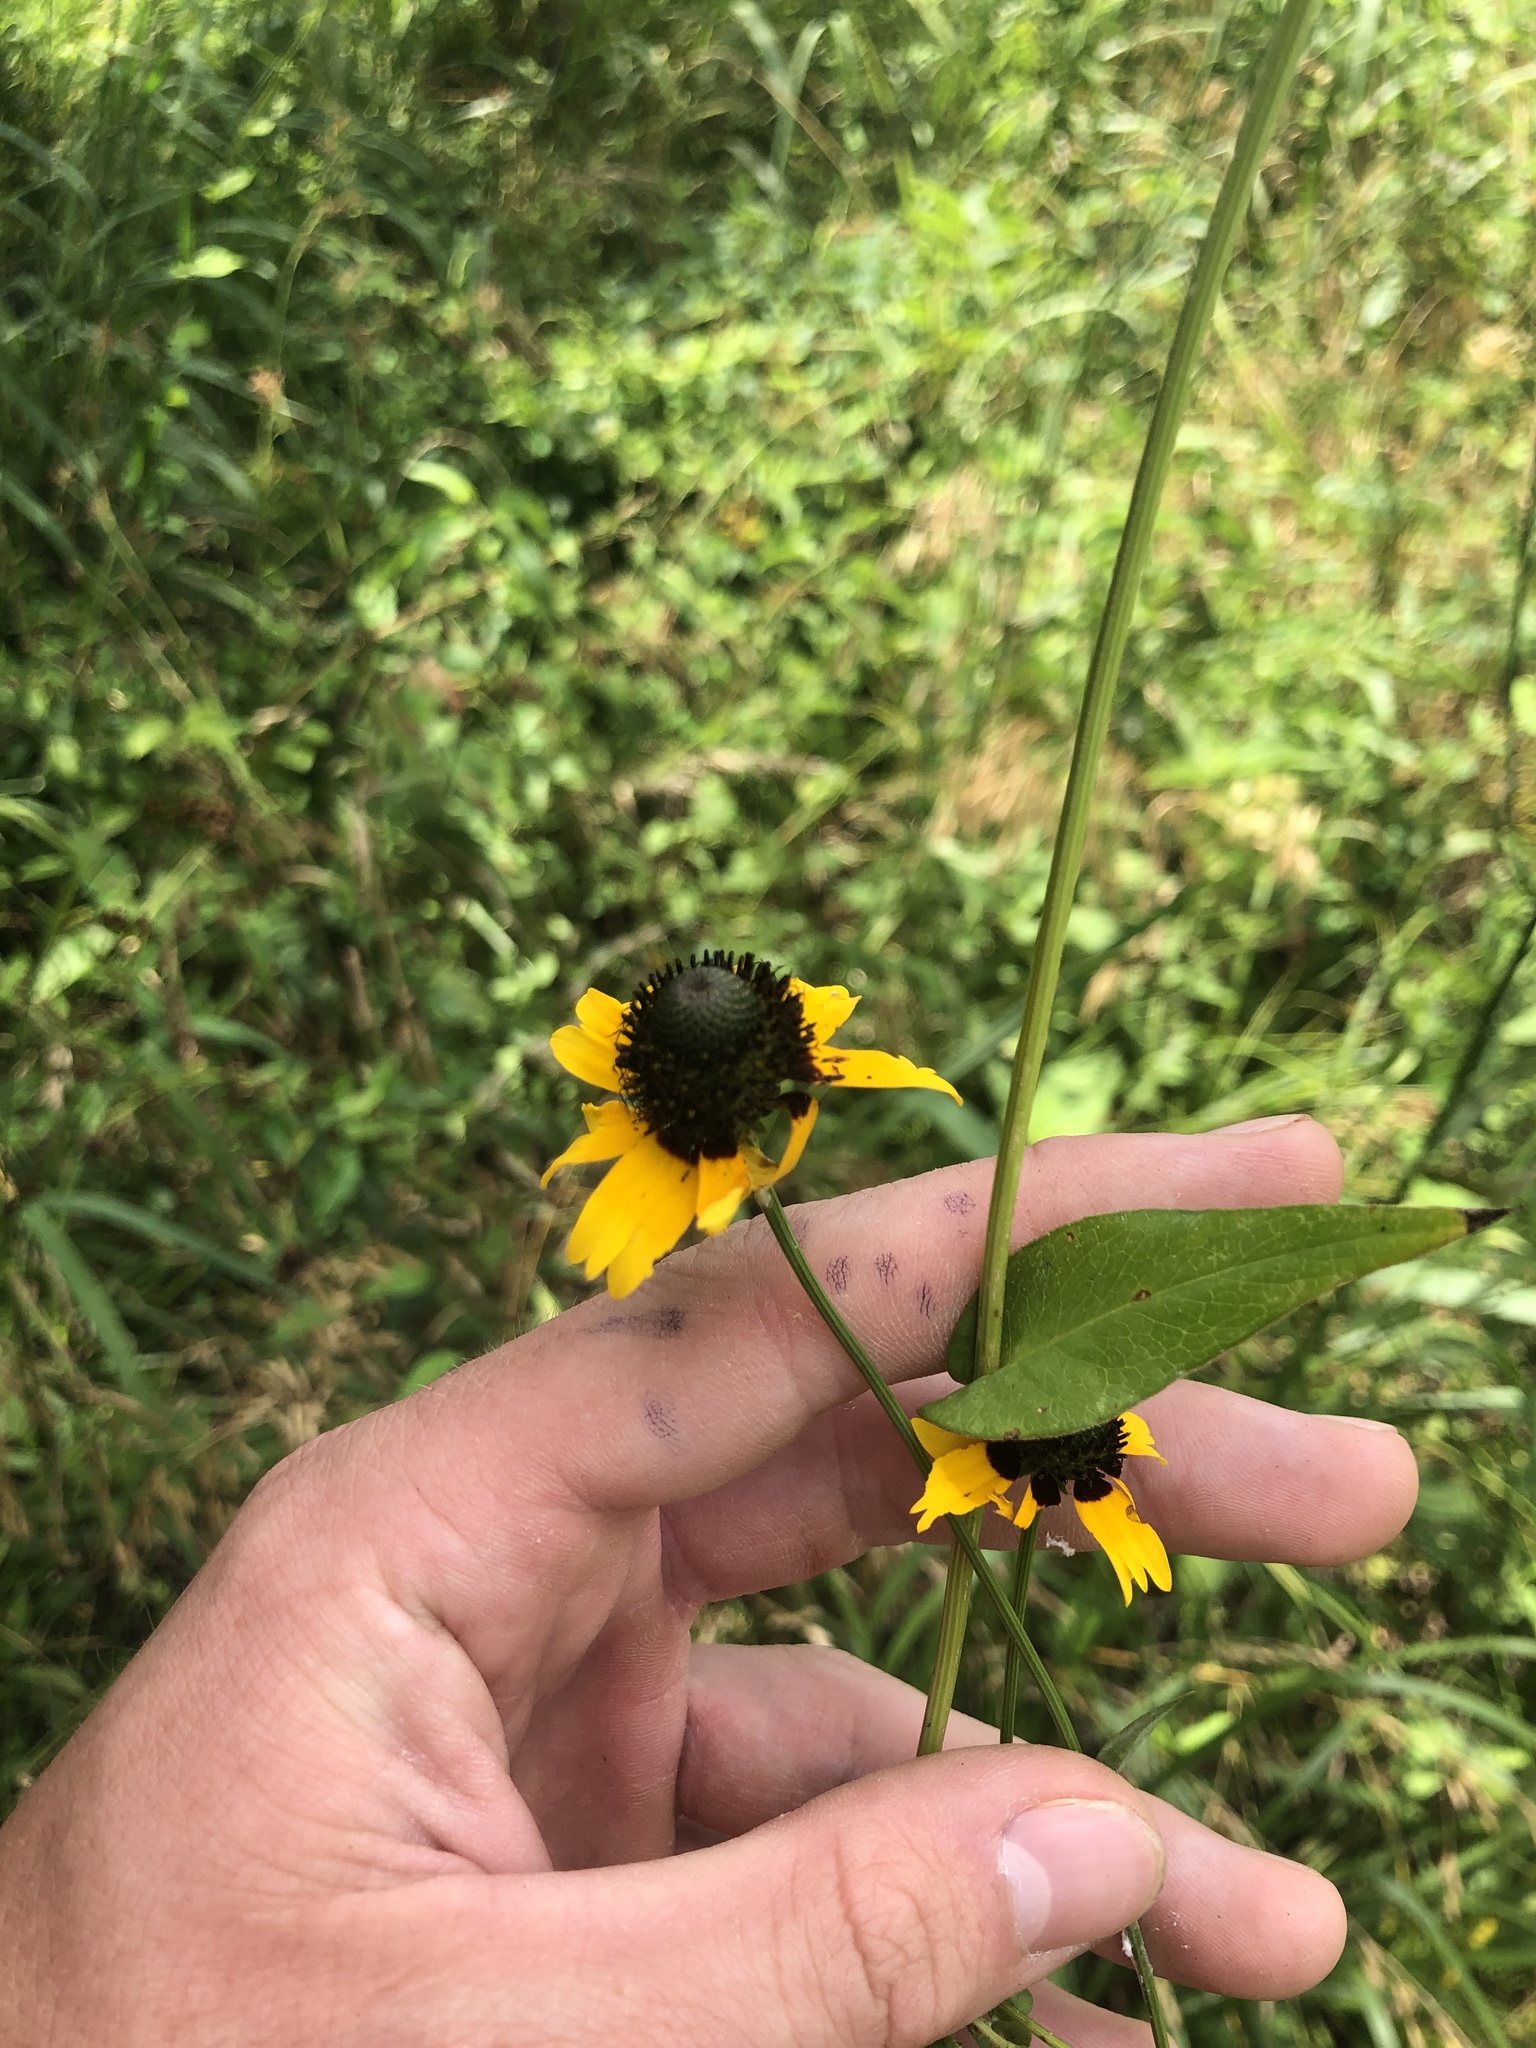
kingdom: Plantae
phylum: Tracheophyta
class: Magnoliopsida
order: Asterales
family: Asteraceae
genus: Rudbeckia
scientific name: Rudbeckia amplexicaulis
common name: Clasping-leaf coneflower
